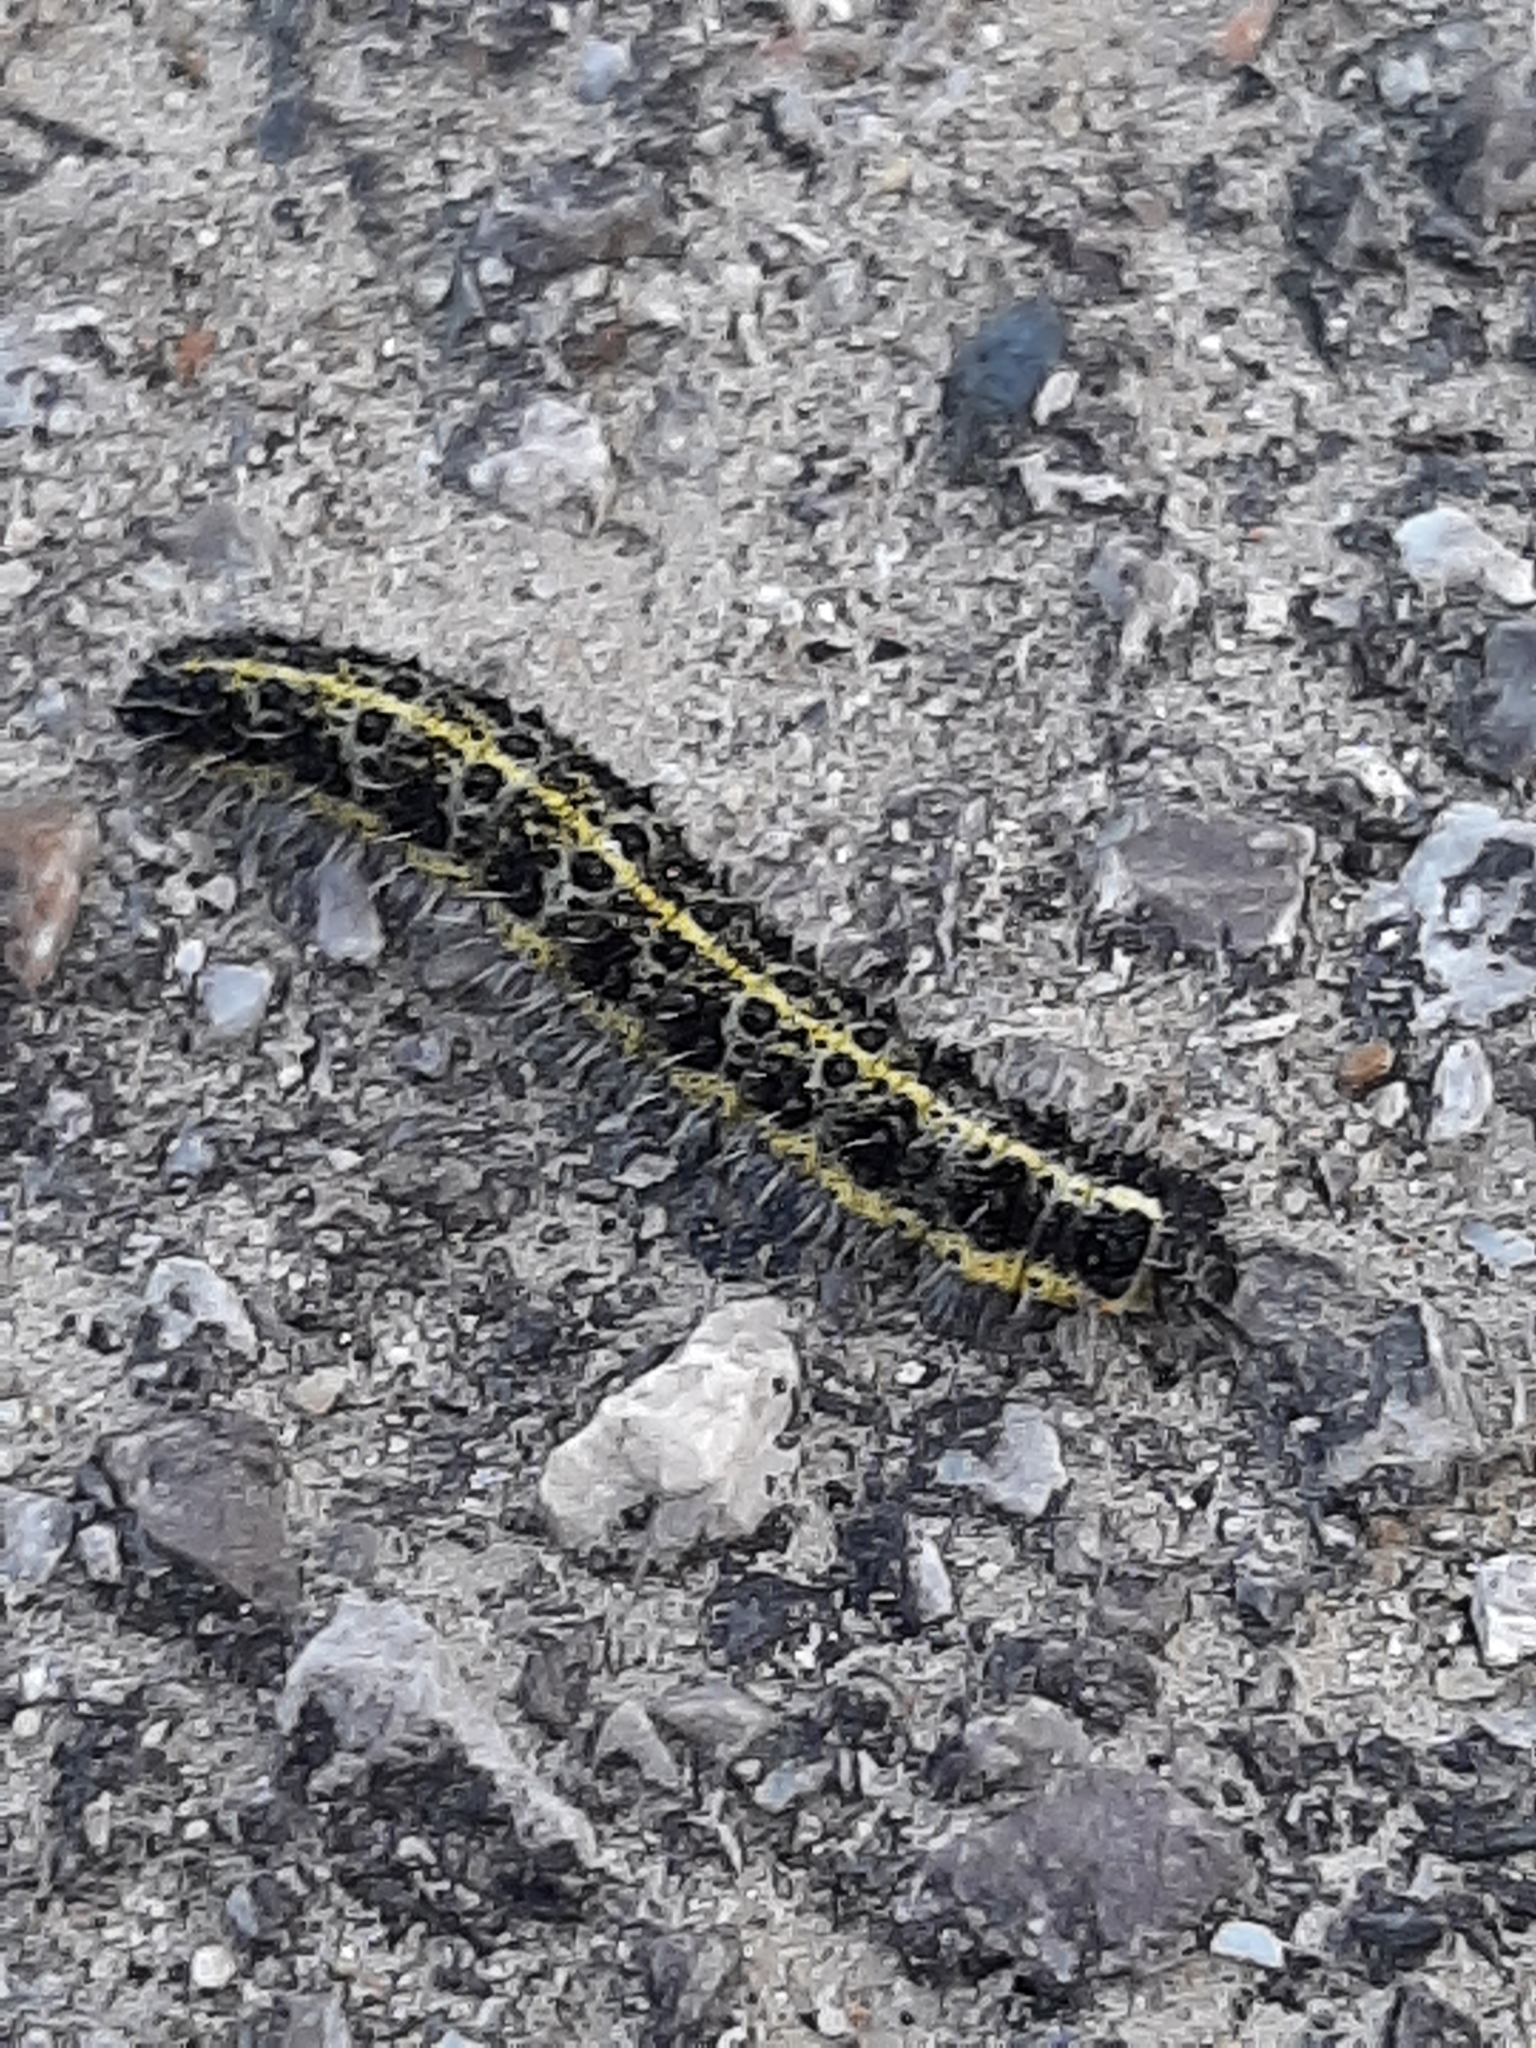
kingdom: Animalia
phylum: Arthropoda
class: Insecta
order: Lepidoptera
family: Pieridae
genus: Pieris
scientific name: Pieris brassicae
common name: Large white
